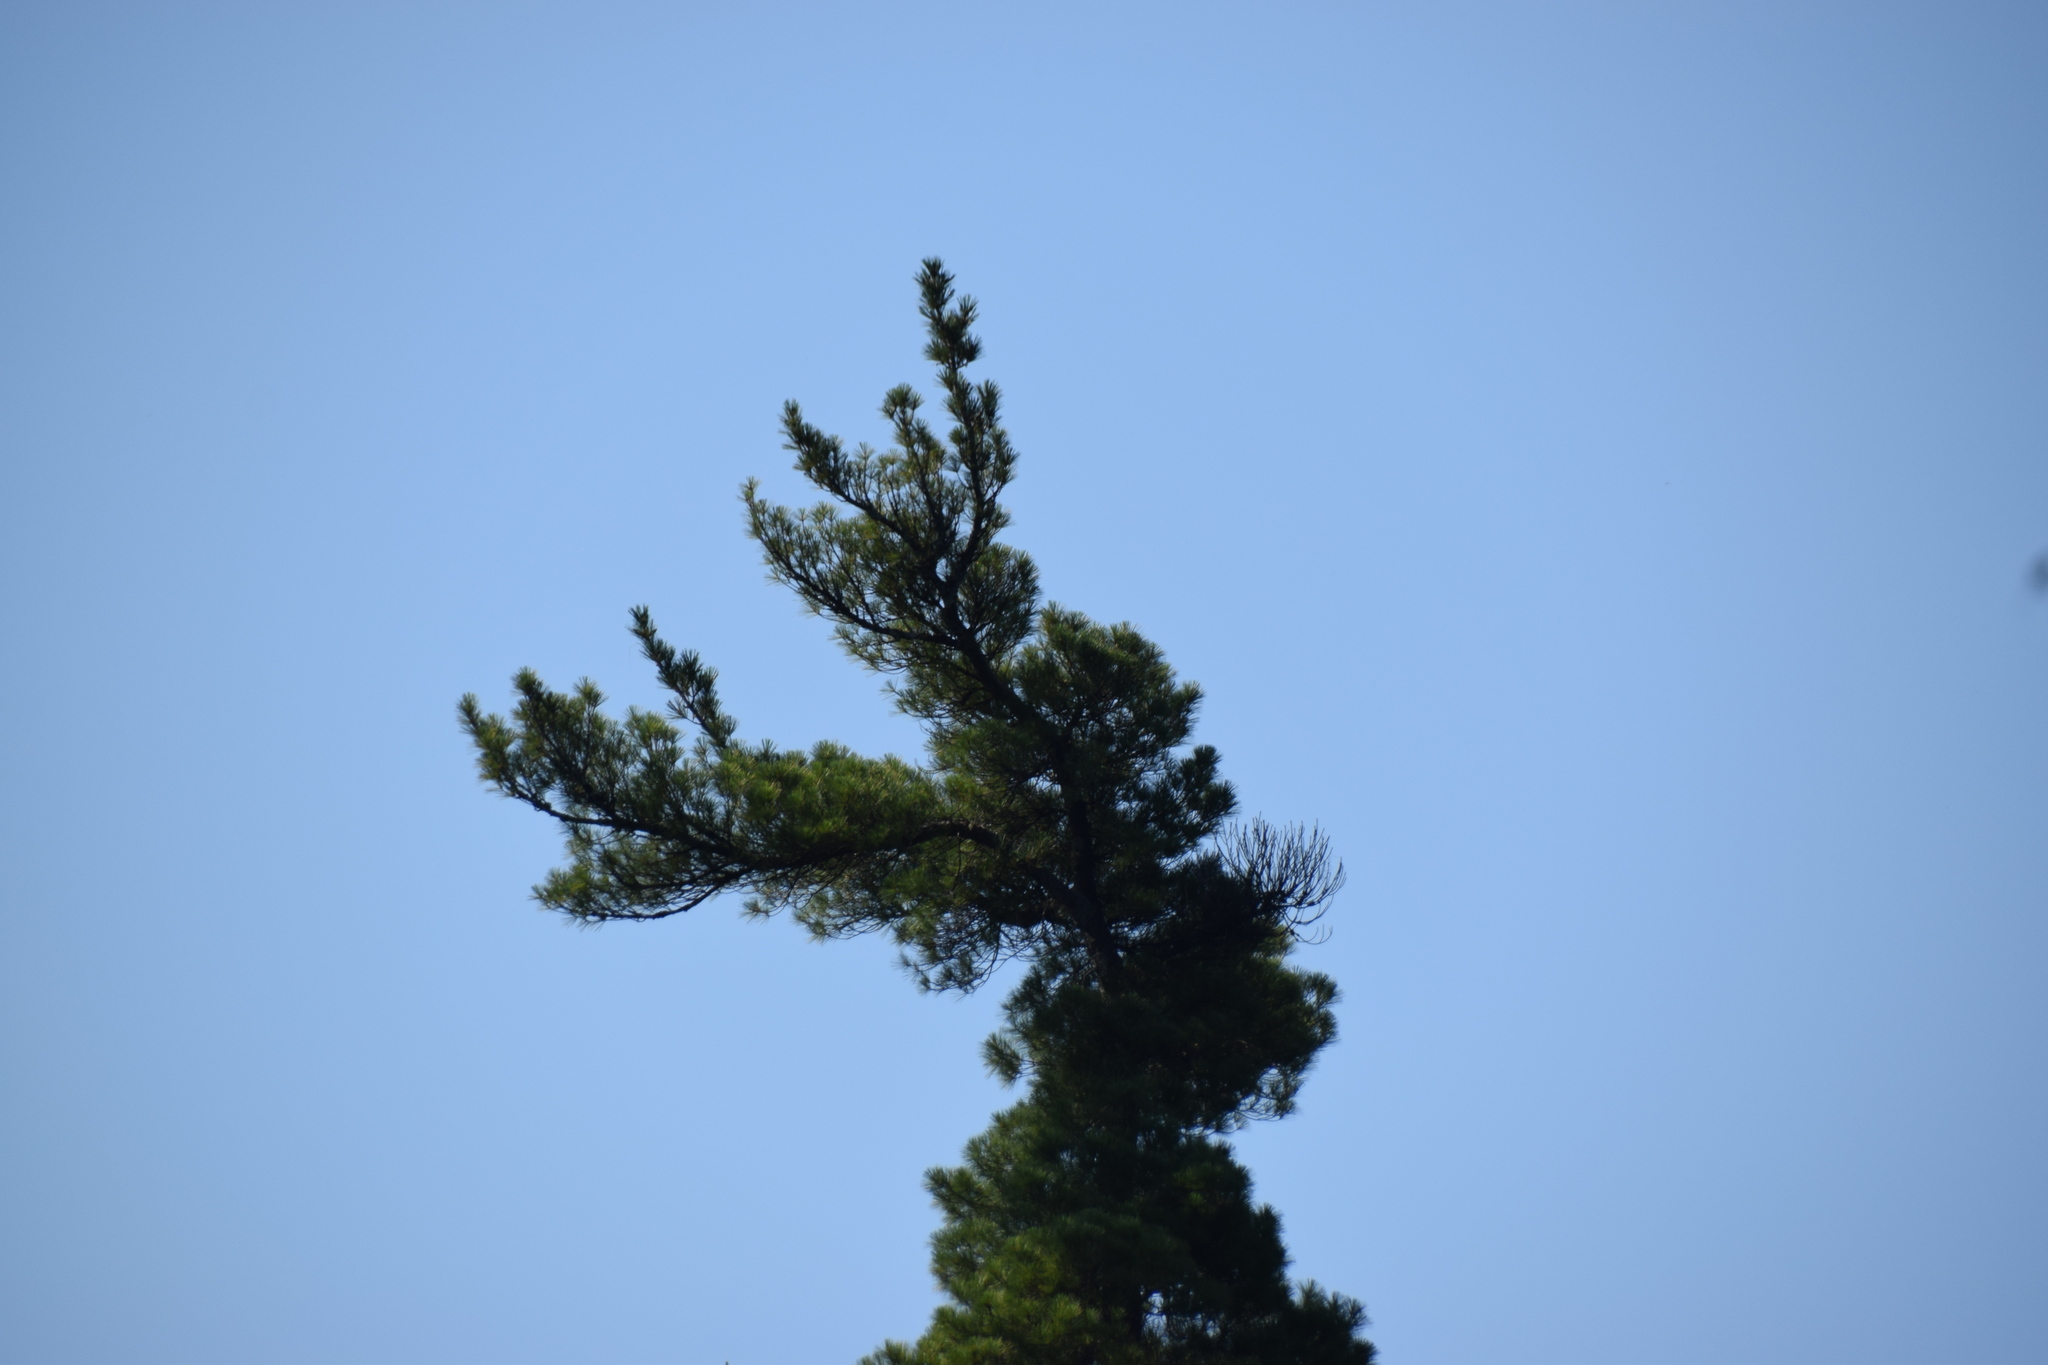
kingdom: Plantae
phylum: Tracheophyta
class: Pinopsida
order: Pinales
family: Pinaceae
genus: Pinus
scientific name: Pinus strobus
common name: Weymouth pine
